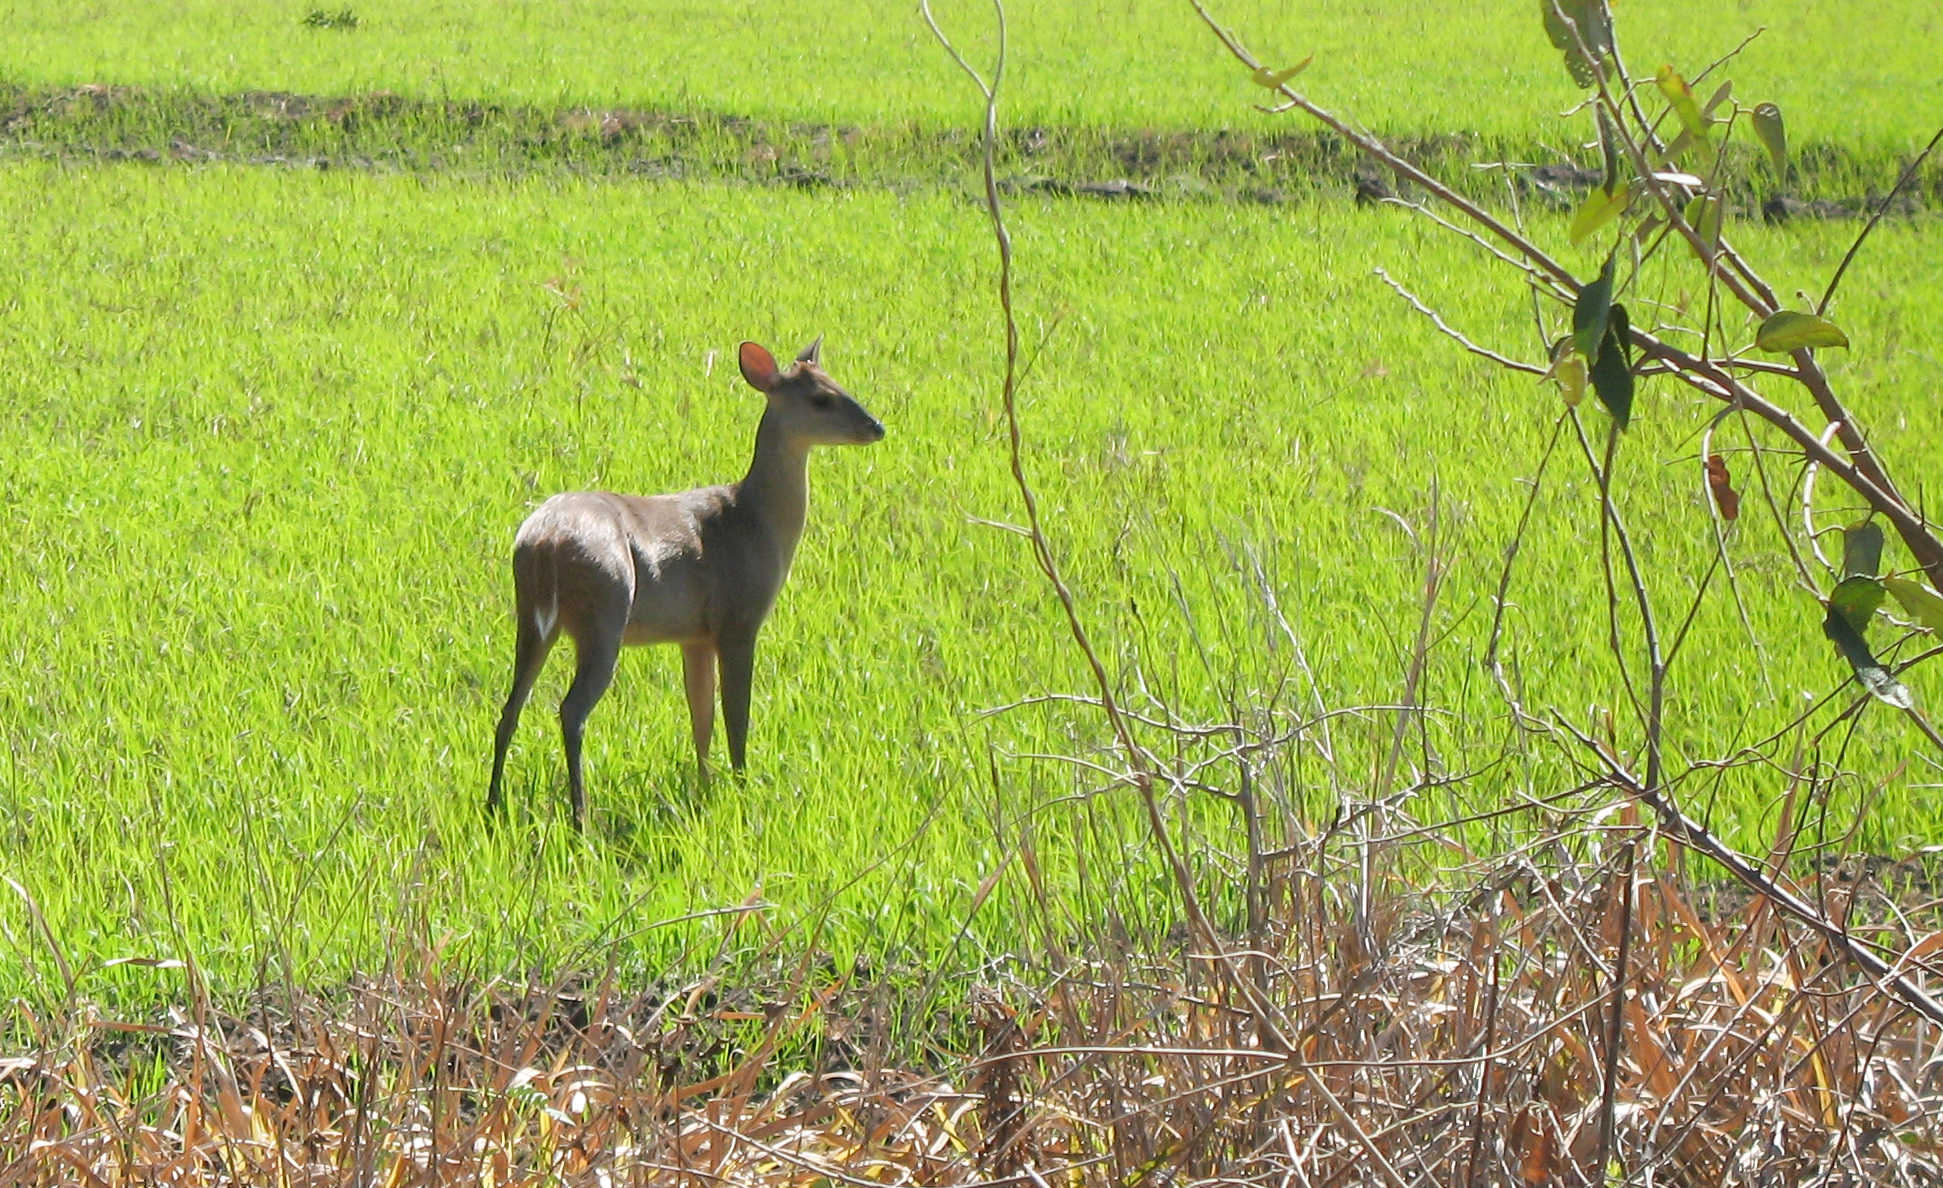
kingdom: Animalia
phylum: Chordata
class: Mammalia
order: Artiodactyla
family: Cervidae
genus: Mazama
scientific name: Mazama gouazoubira
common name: Gray brocket
